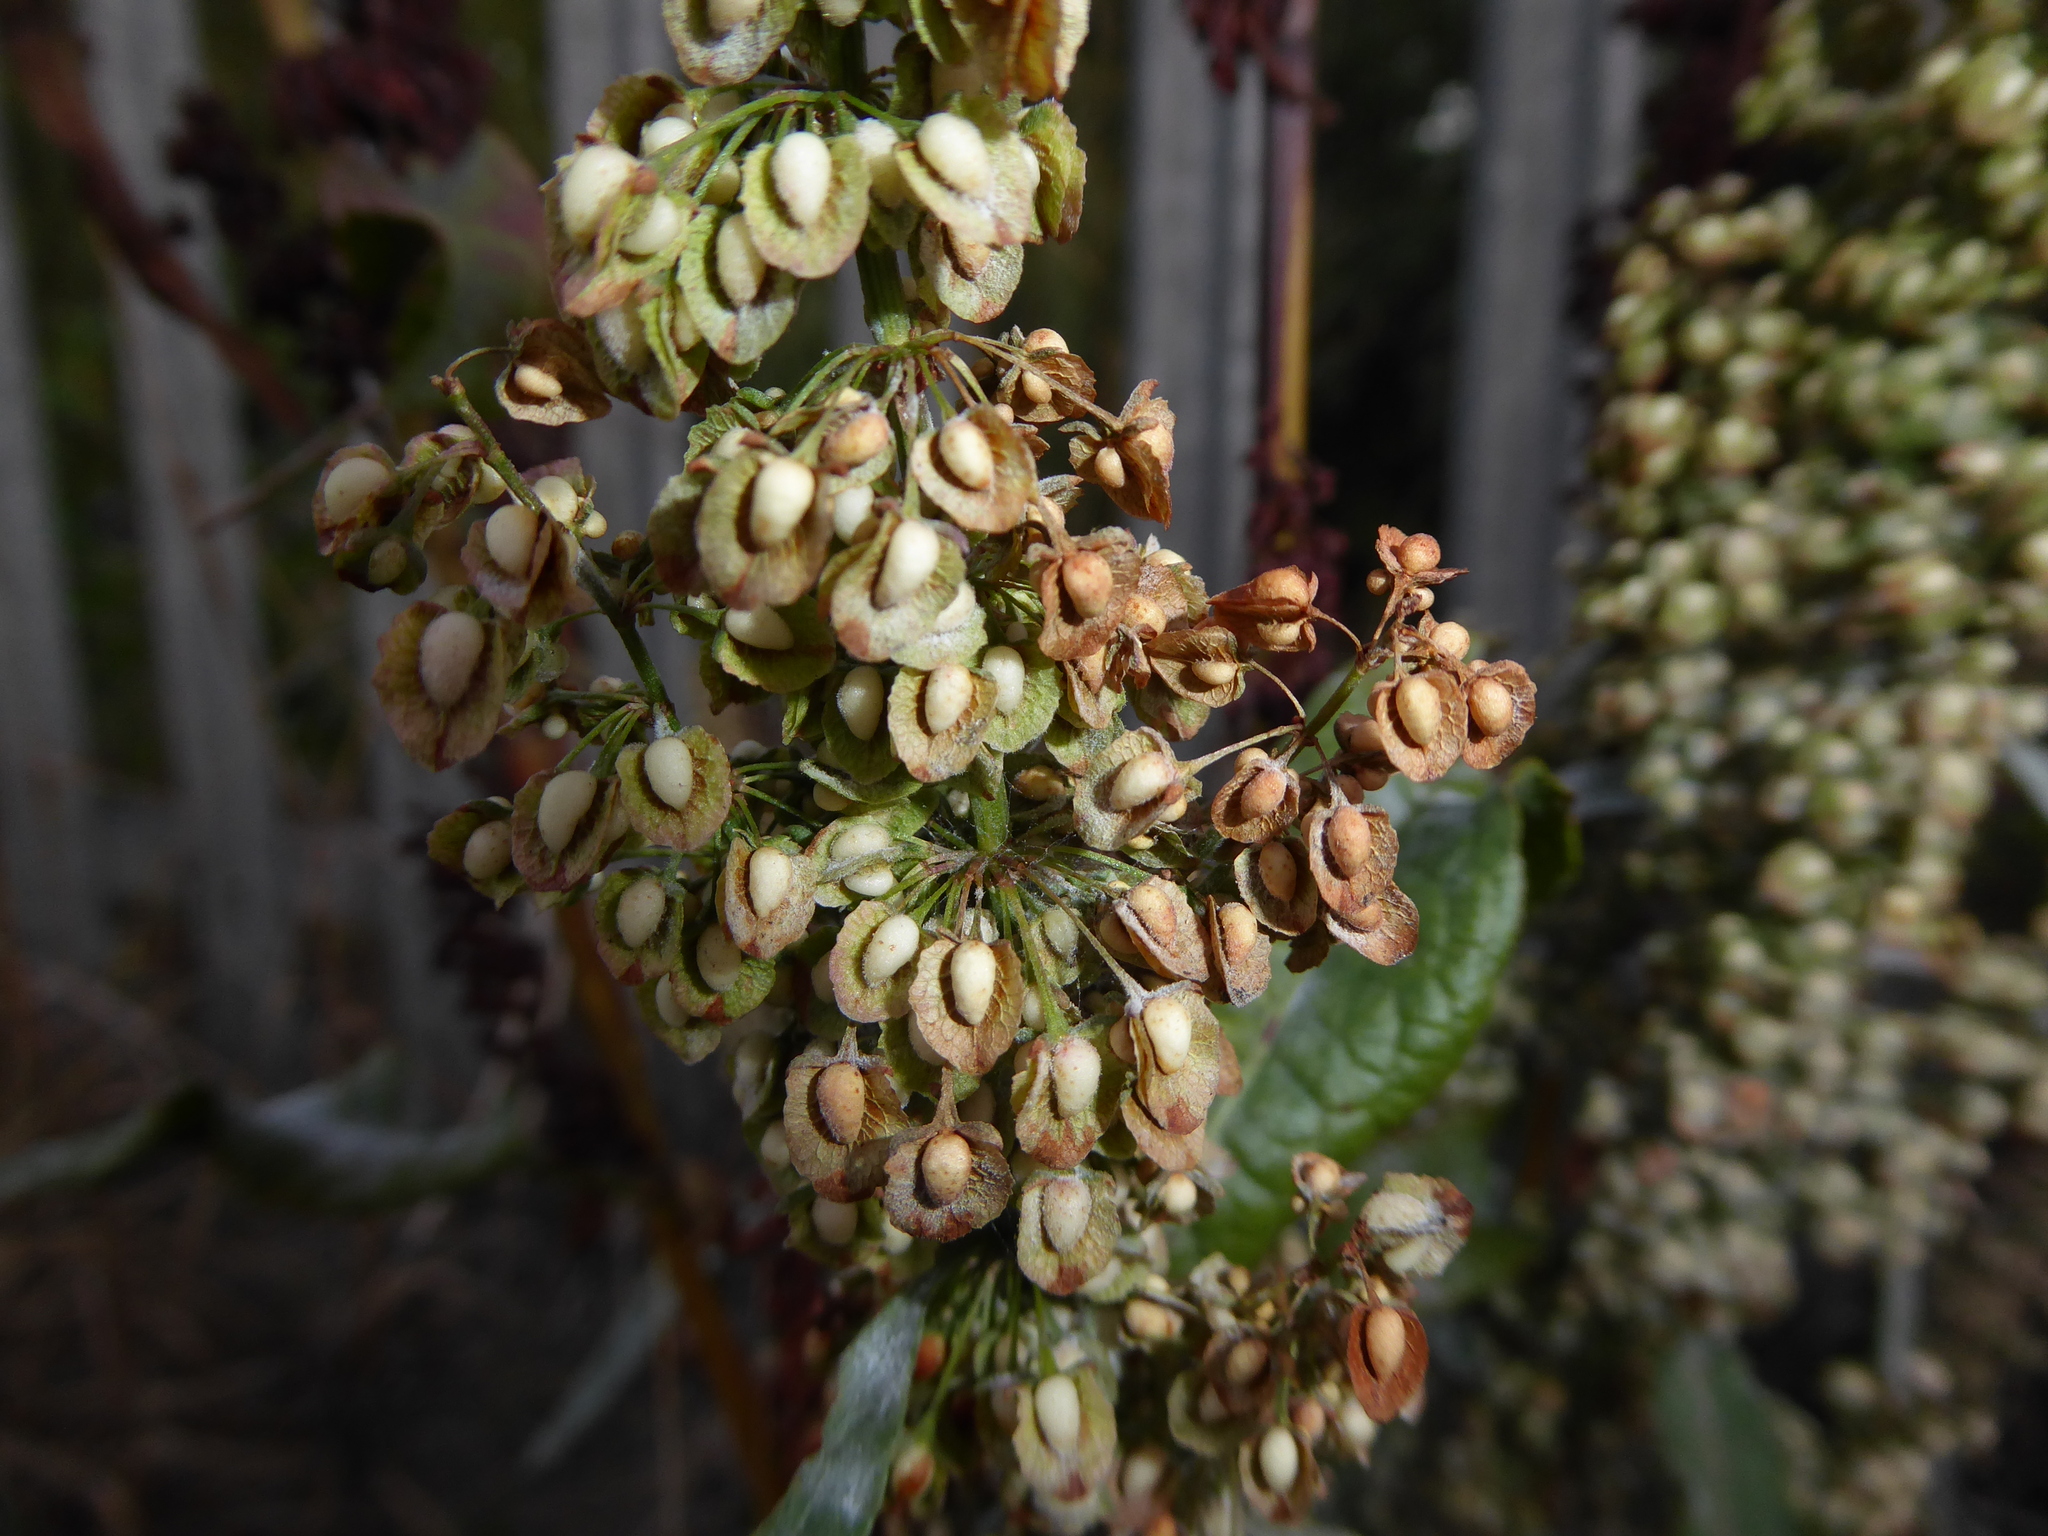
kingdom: Plantae
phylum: Tracheophyta
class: Magnoliopsida
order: Caryophyllales
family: Polygonaceae
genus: Rumex
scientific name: Rumex crispus
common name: Curled dock
